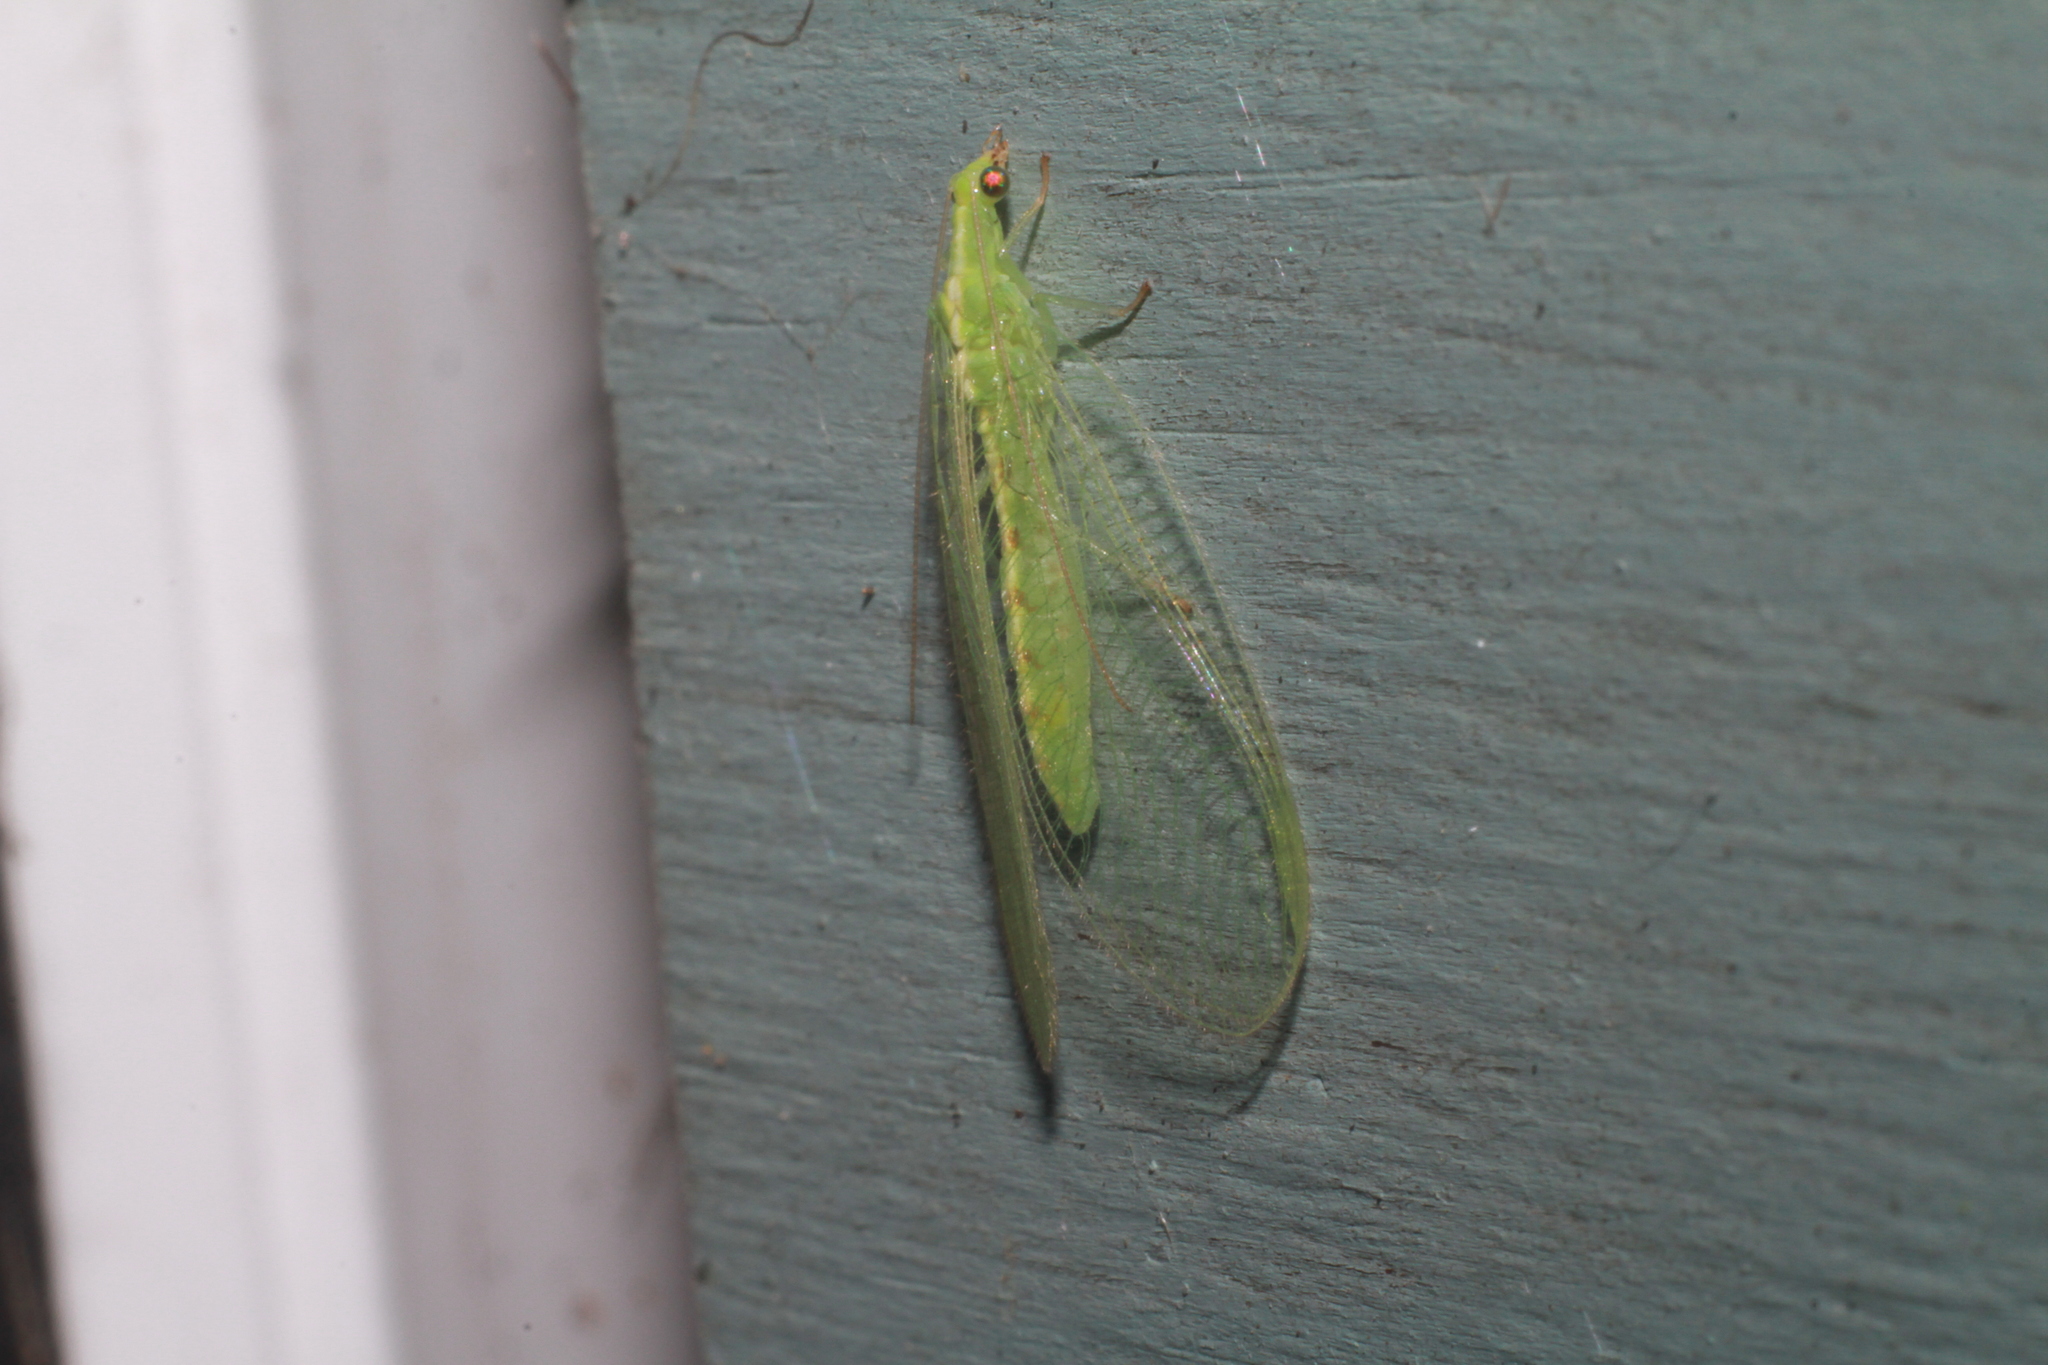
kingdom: Animalia
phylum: Arthropoda
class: Insecta
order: Neuroptera
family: Chrysopidae
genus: Chrysoperla
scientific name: Chrysoperla
